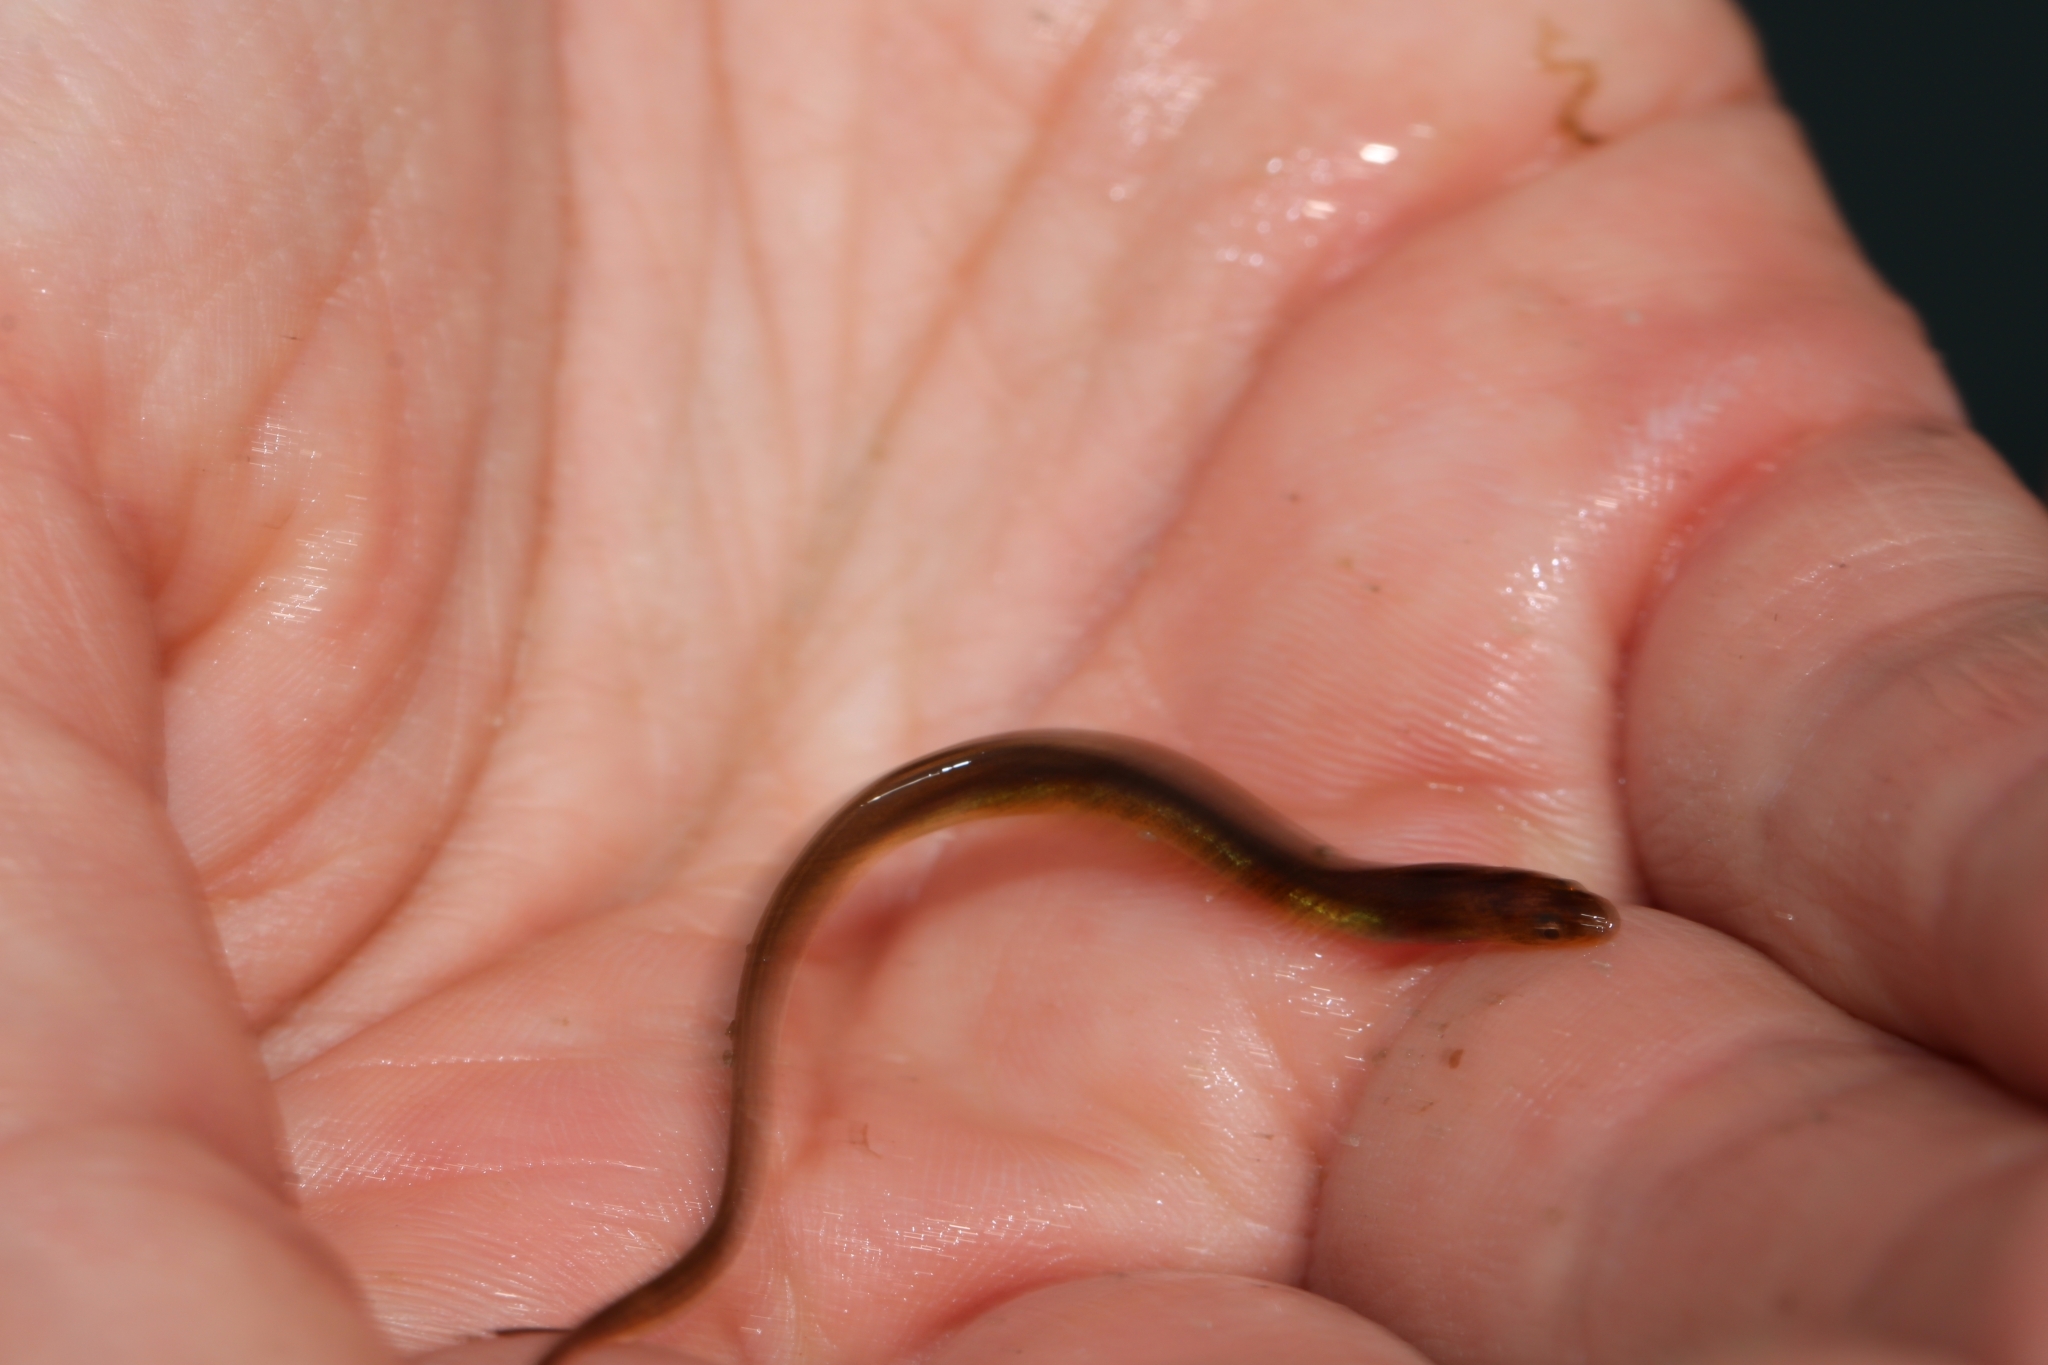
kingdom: Animalia
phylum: Chordata
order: Anguilliformes
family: Anguillidae
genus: Anguilla
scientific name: Anguilla rostrata
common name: American eel
